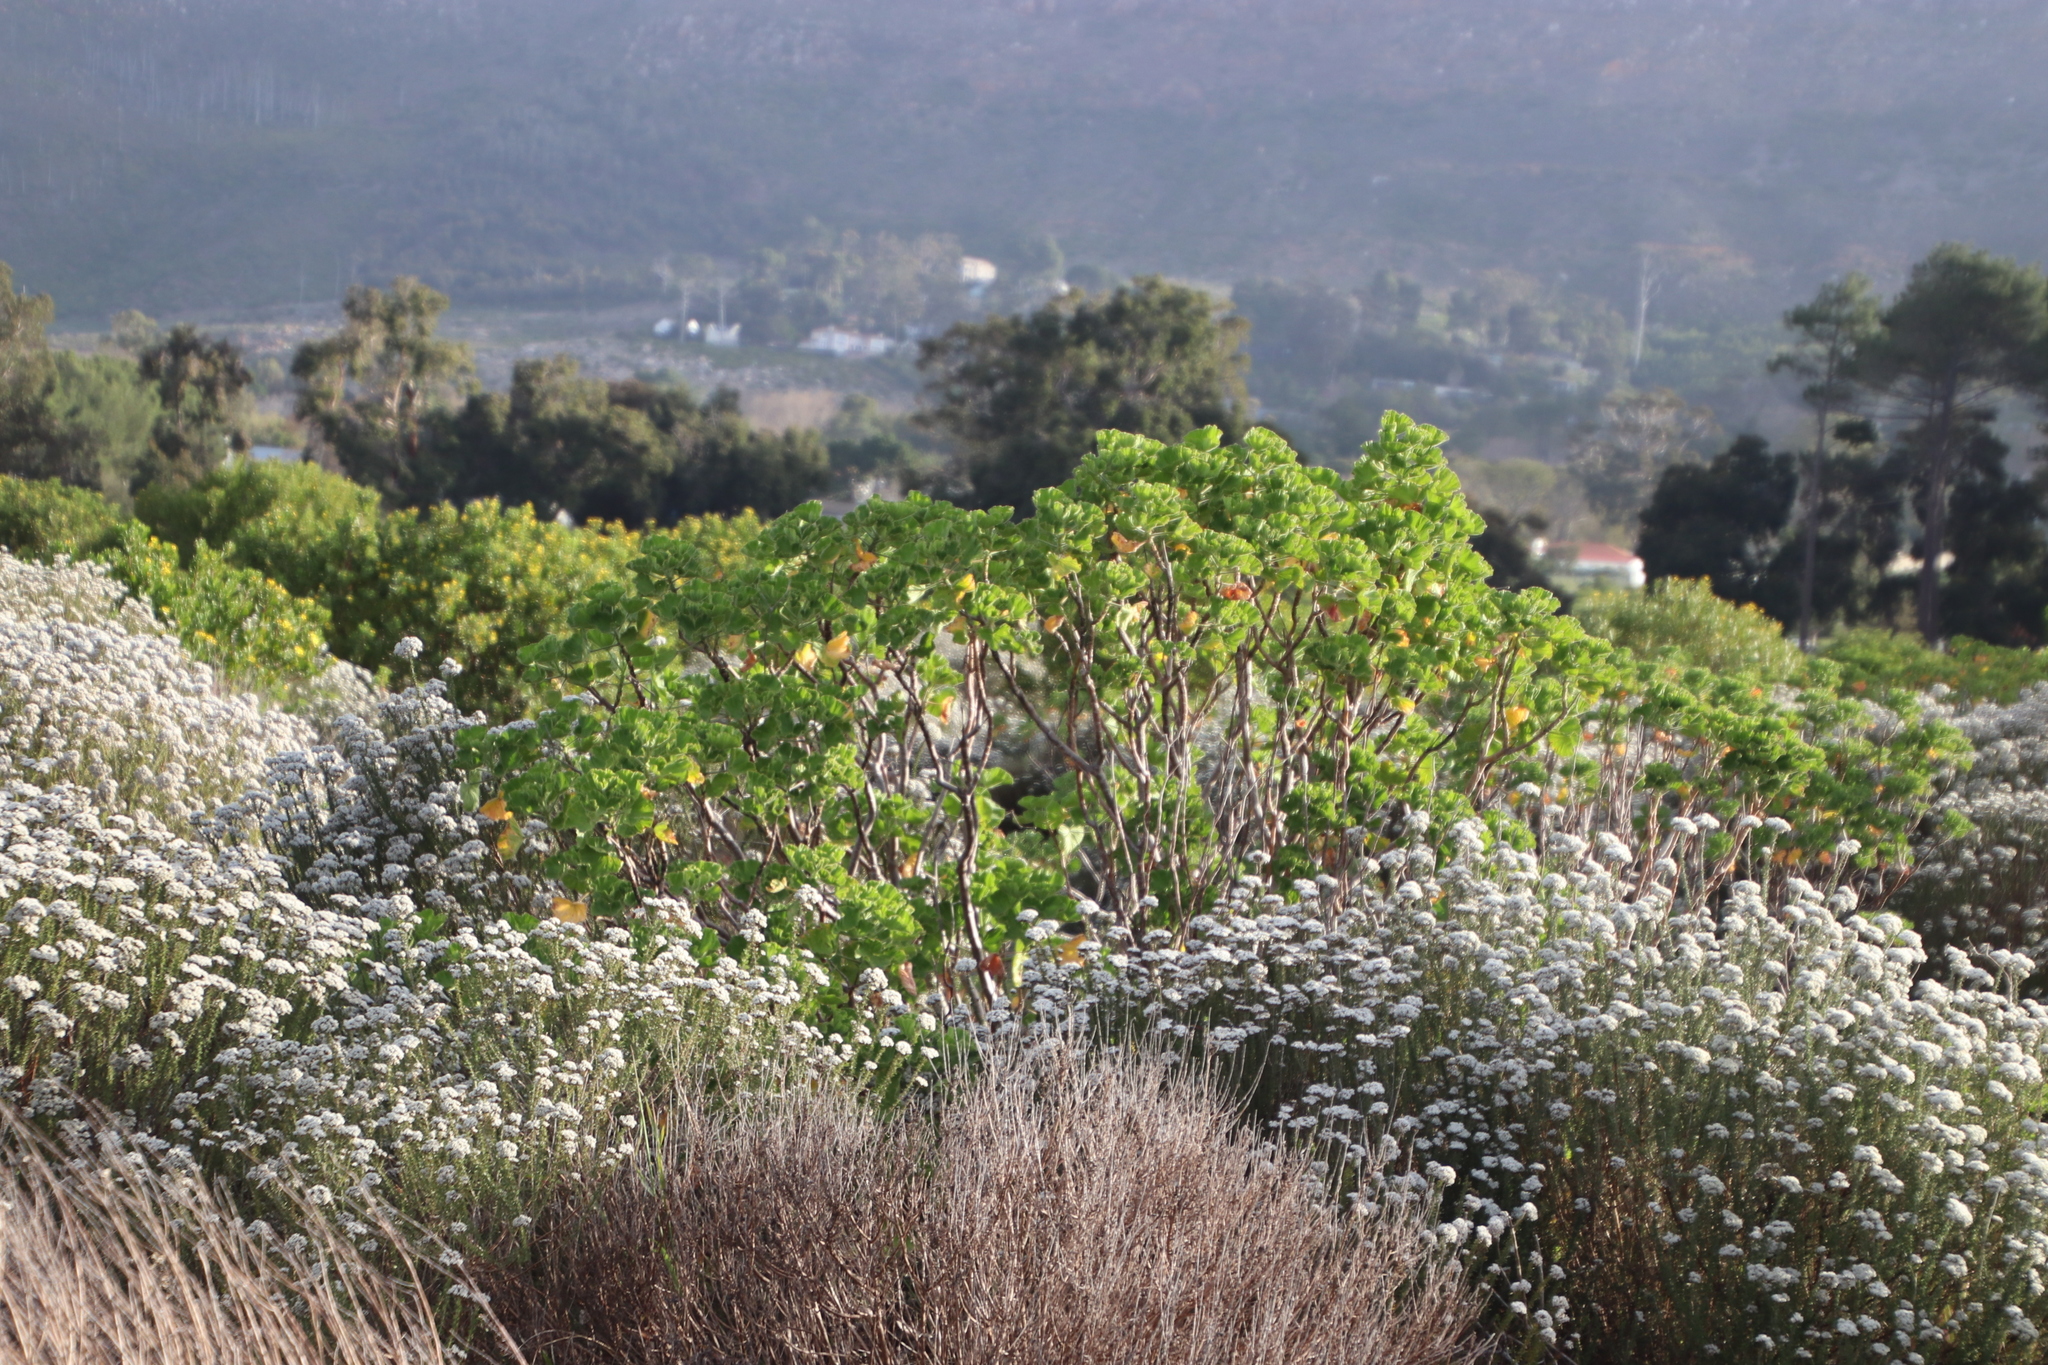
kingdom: Plantae
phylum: Tracheophyta
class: Magnoliopsida
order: Geraniales
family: Geraniaceae
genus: Pelargonium
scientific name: Pelargonium cucullatum
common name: Tree pelargonium
